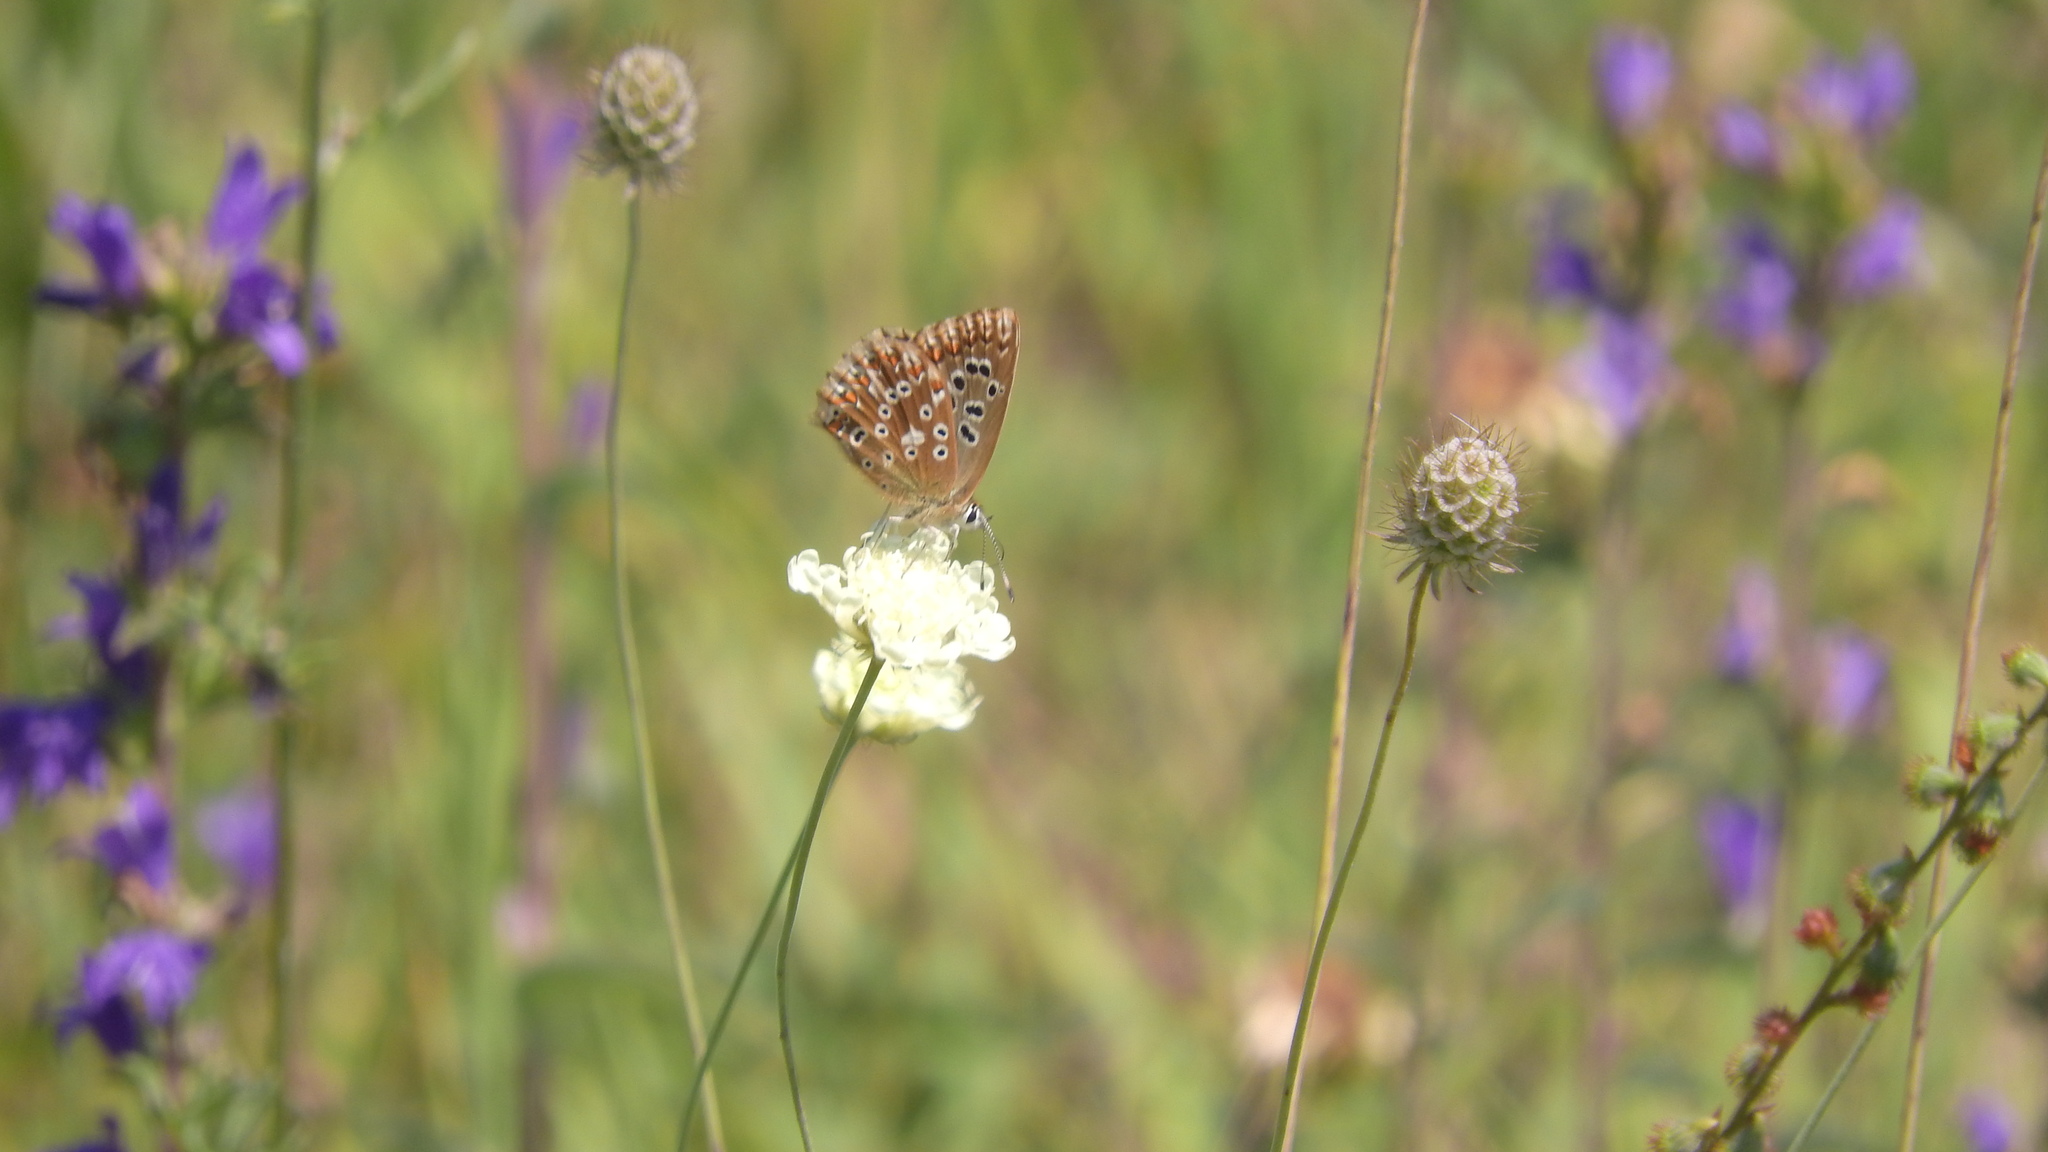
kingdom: Animalia
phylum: Arthropoda
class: Insecta
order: Lepidoptera
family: Lycaenidae
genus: Lysandra
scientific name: Lysandra coridon
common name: Chalkhill blue
